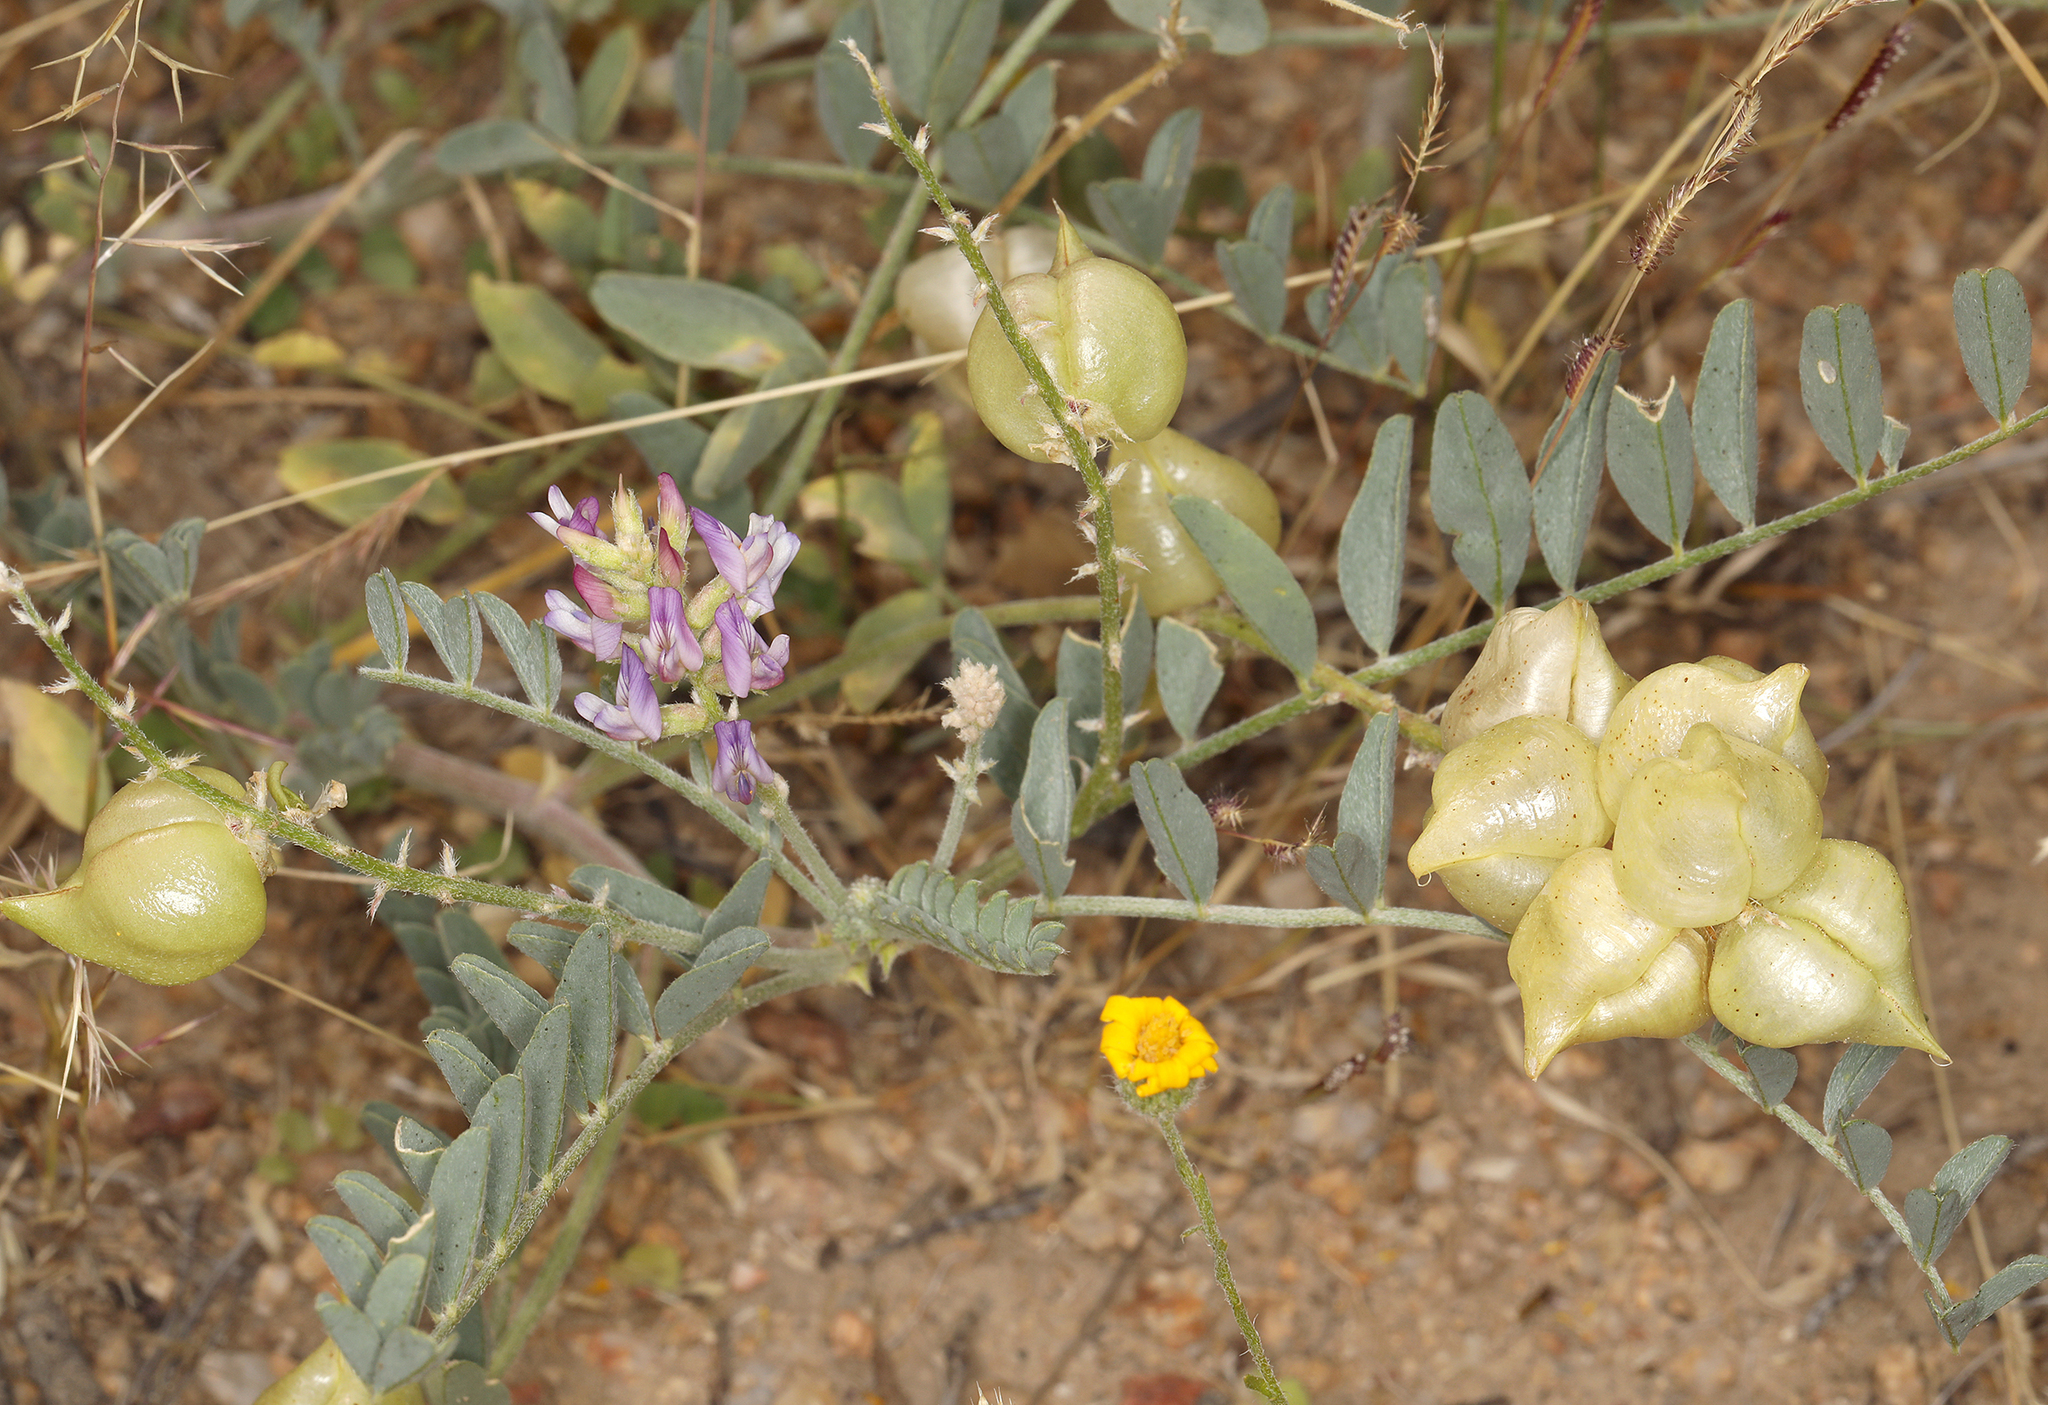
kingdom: Plantae
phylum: Tracheophyta
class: Magnoliopsida
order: Fabales
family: Fabaceae
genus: Astragalus
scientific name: Astragalus lentiginosus
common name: Freckled milkvetch
